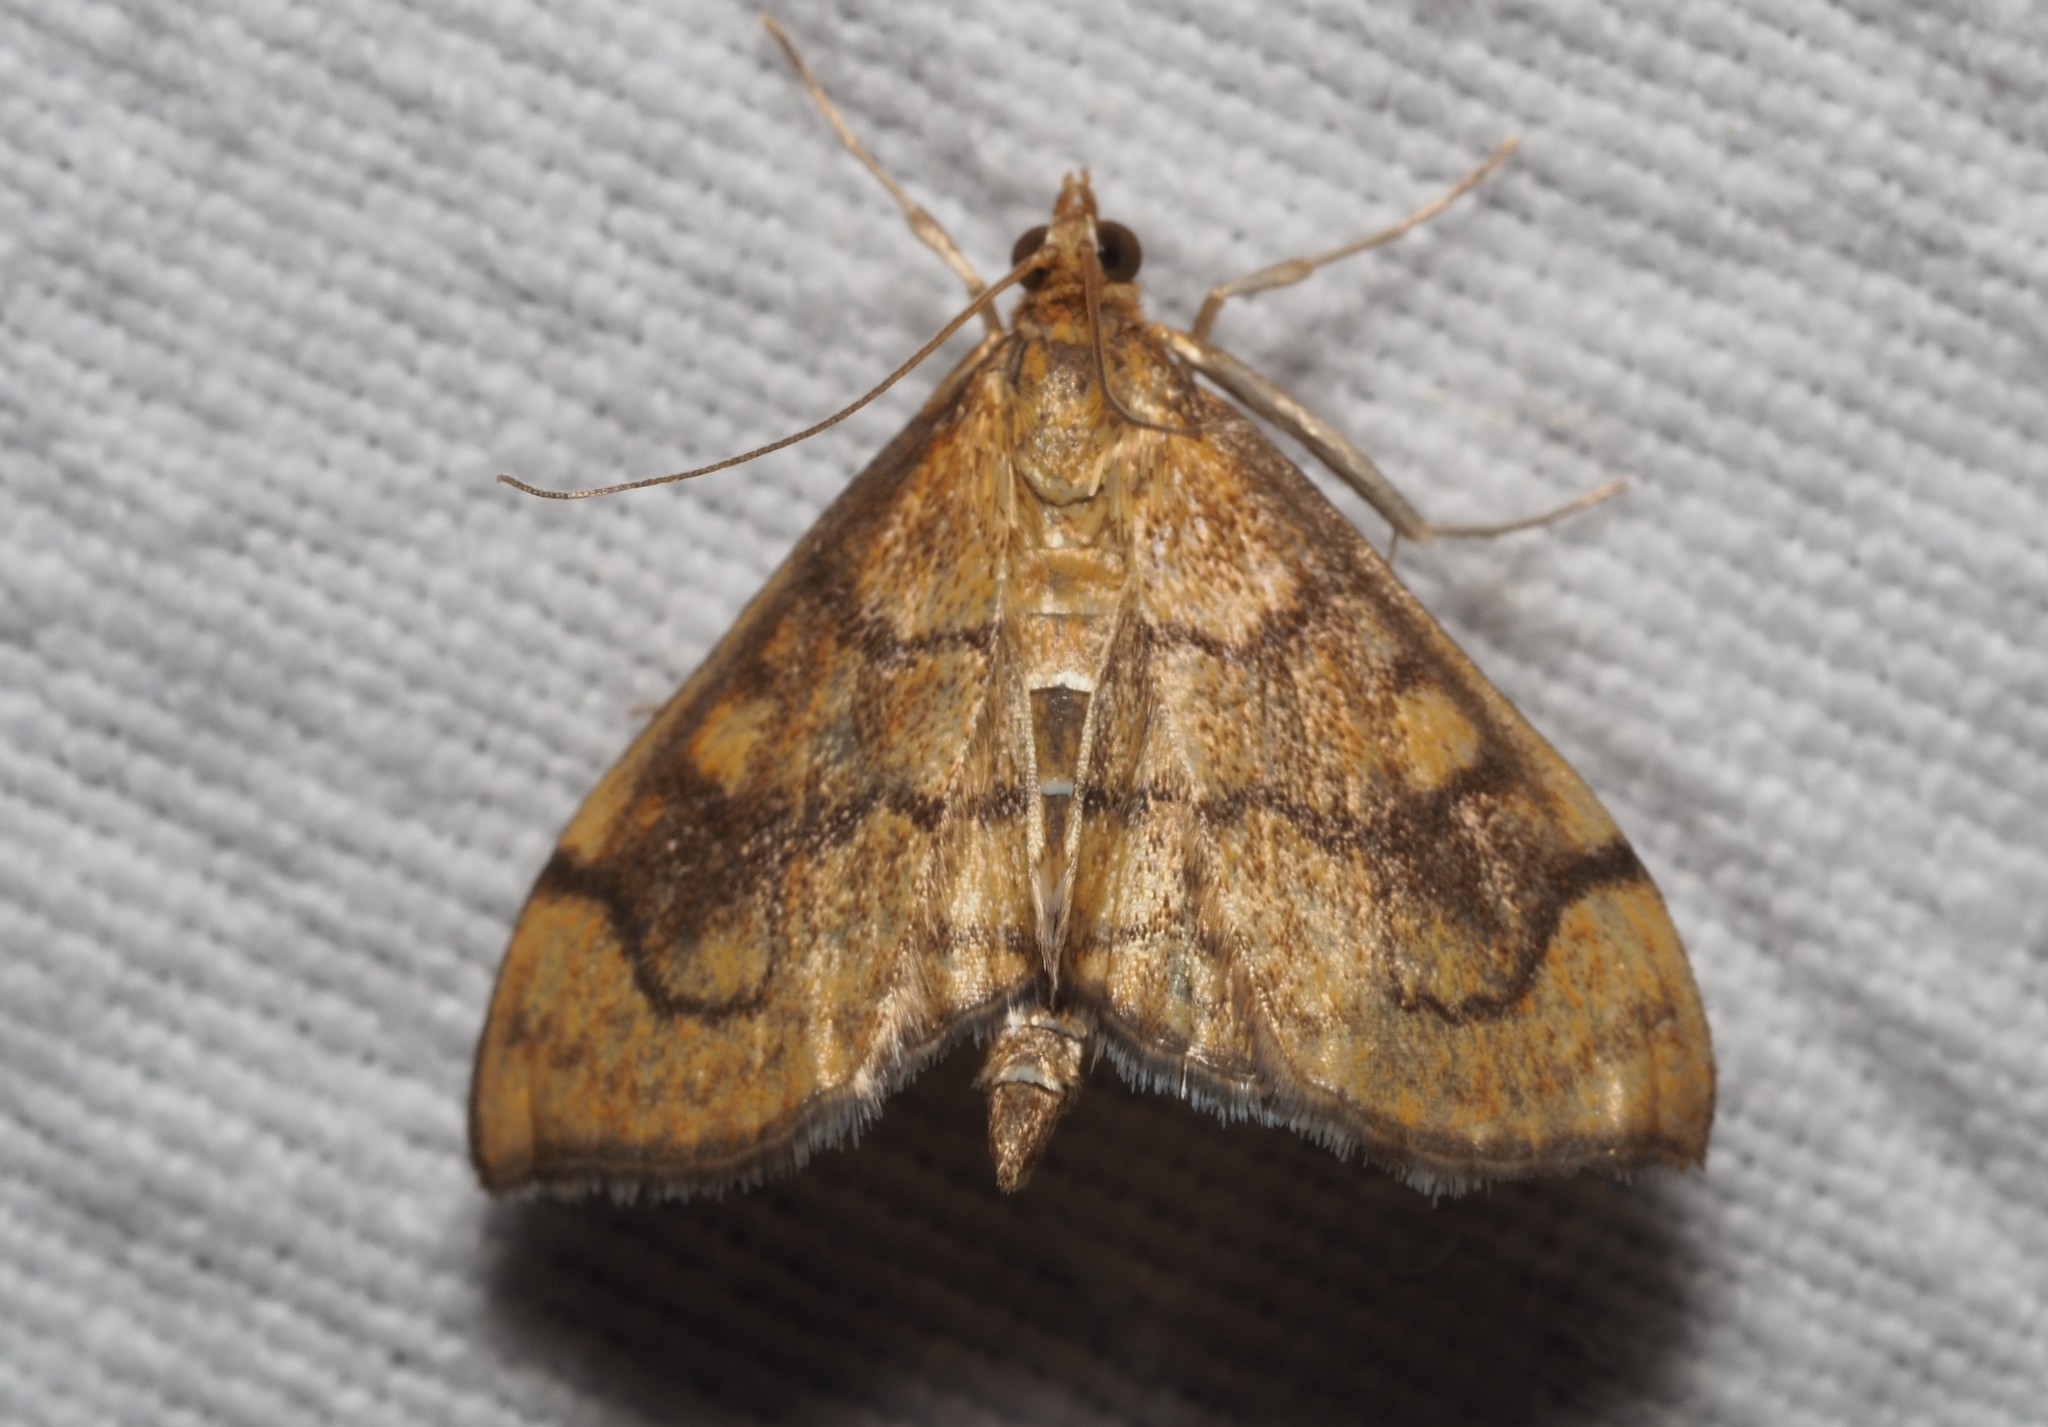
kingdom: Animalia
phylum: Arthropoda
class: Insecta
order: Lepidoptera
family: Crambidae
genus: Anania
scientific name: Anania verbascalis
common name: Golden pearl
